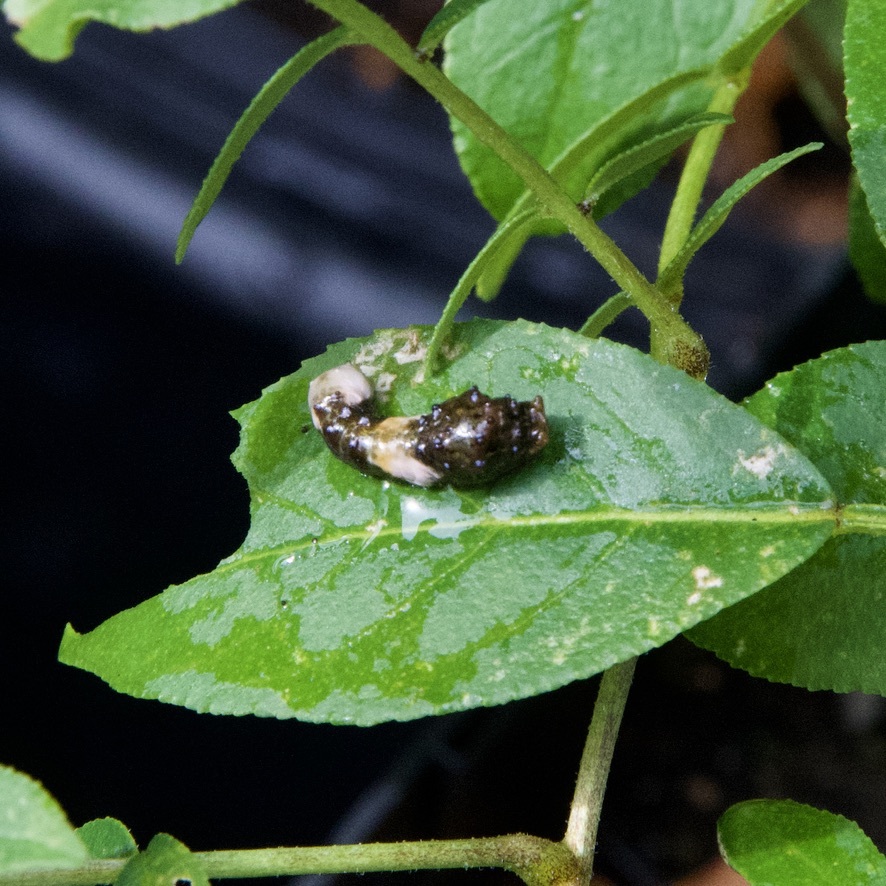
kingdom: Animalia
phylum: Arthropoda
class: Insecta
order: Lepidoptera
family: Papilionidae
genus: Papilio
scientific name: Papilio cresphontes
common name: Giant swallowtail
